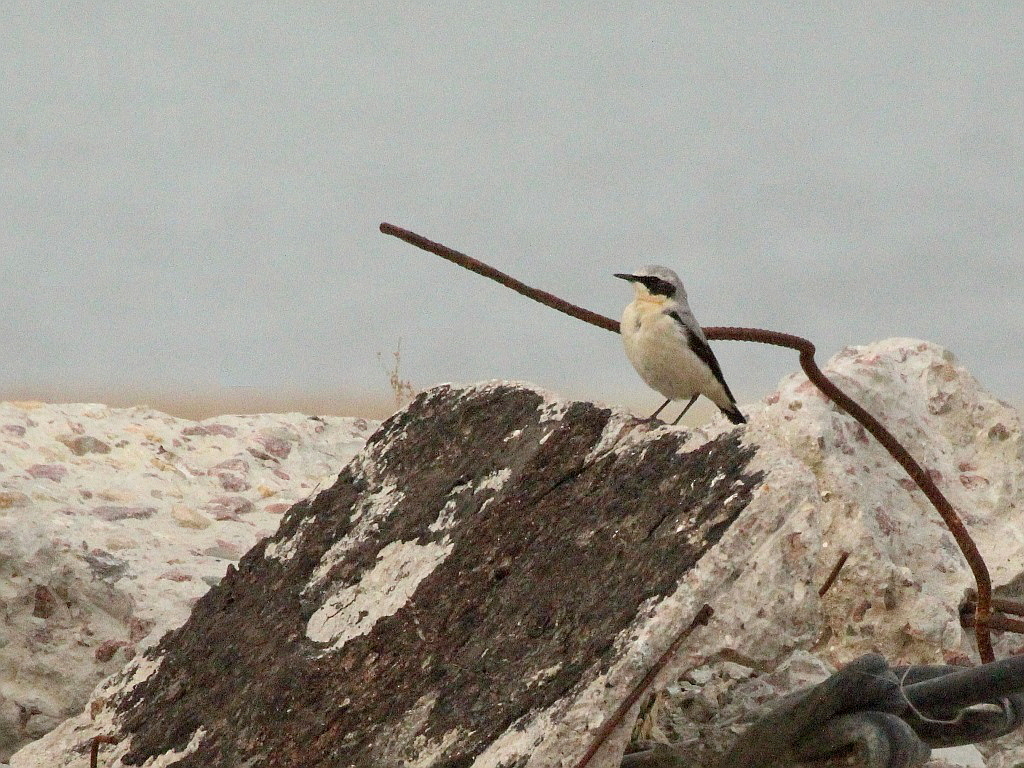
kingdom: Animalia
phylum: Chordata
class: Aves
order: Passeriformes
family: Muscicapidae
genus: Oenanthe
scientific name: Oenanthe oenanthe
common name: Northern wheatear
